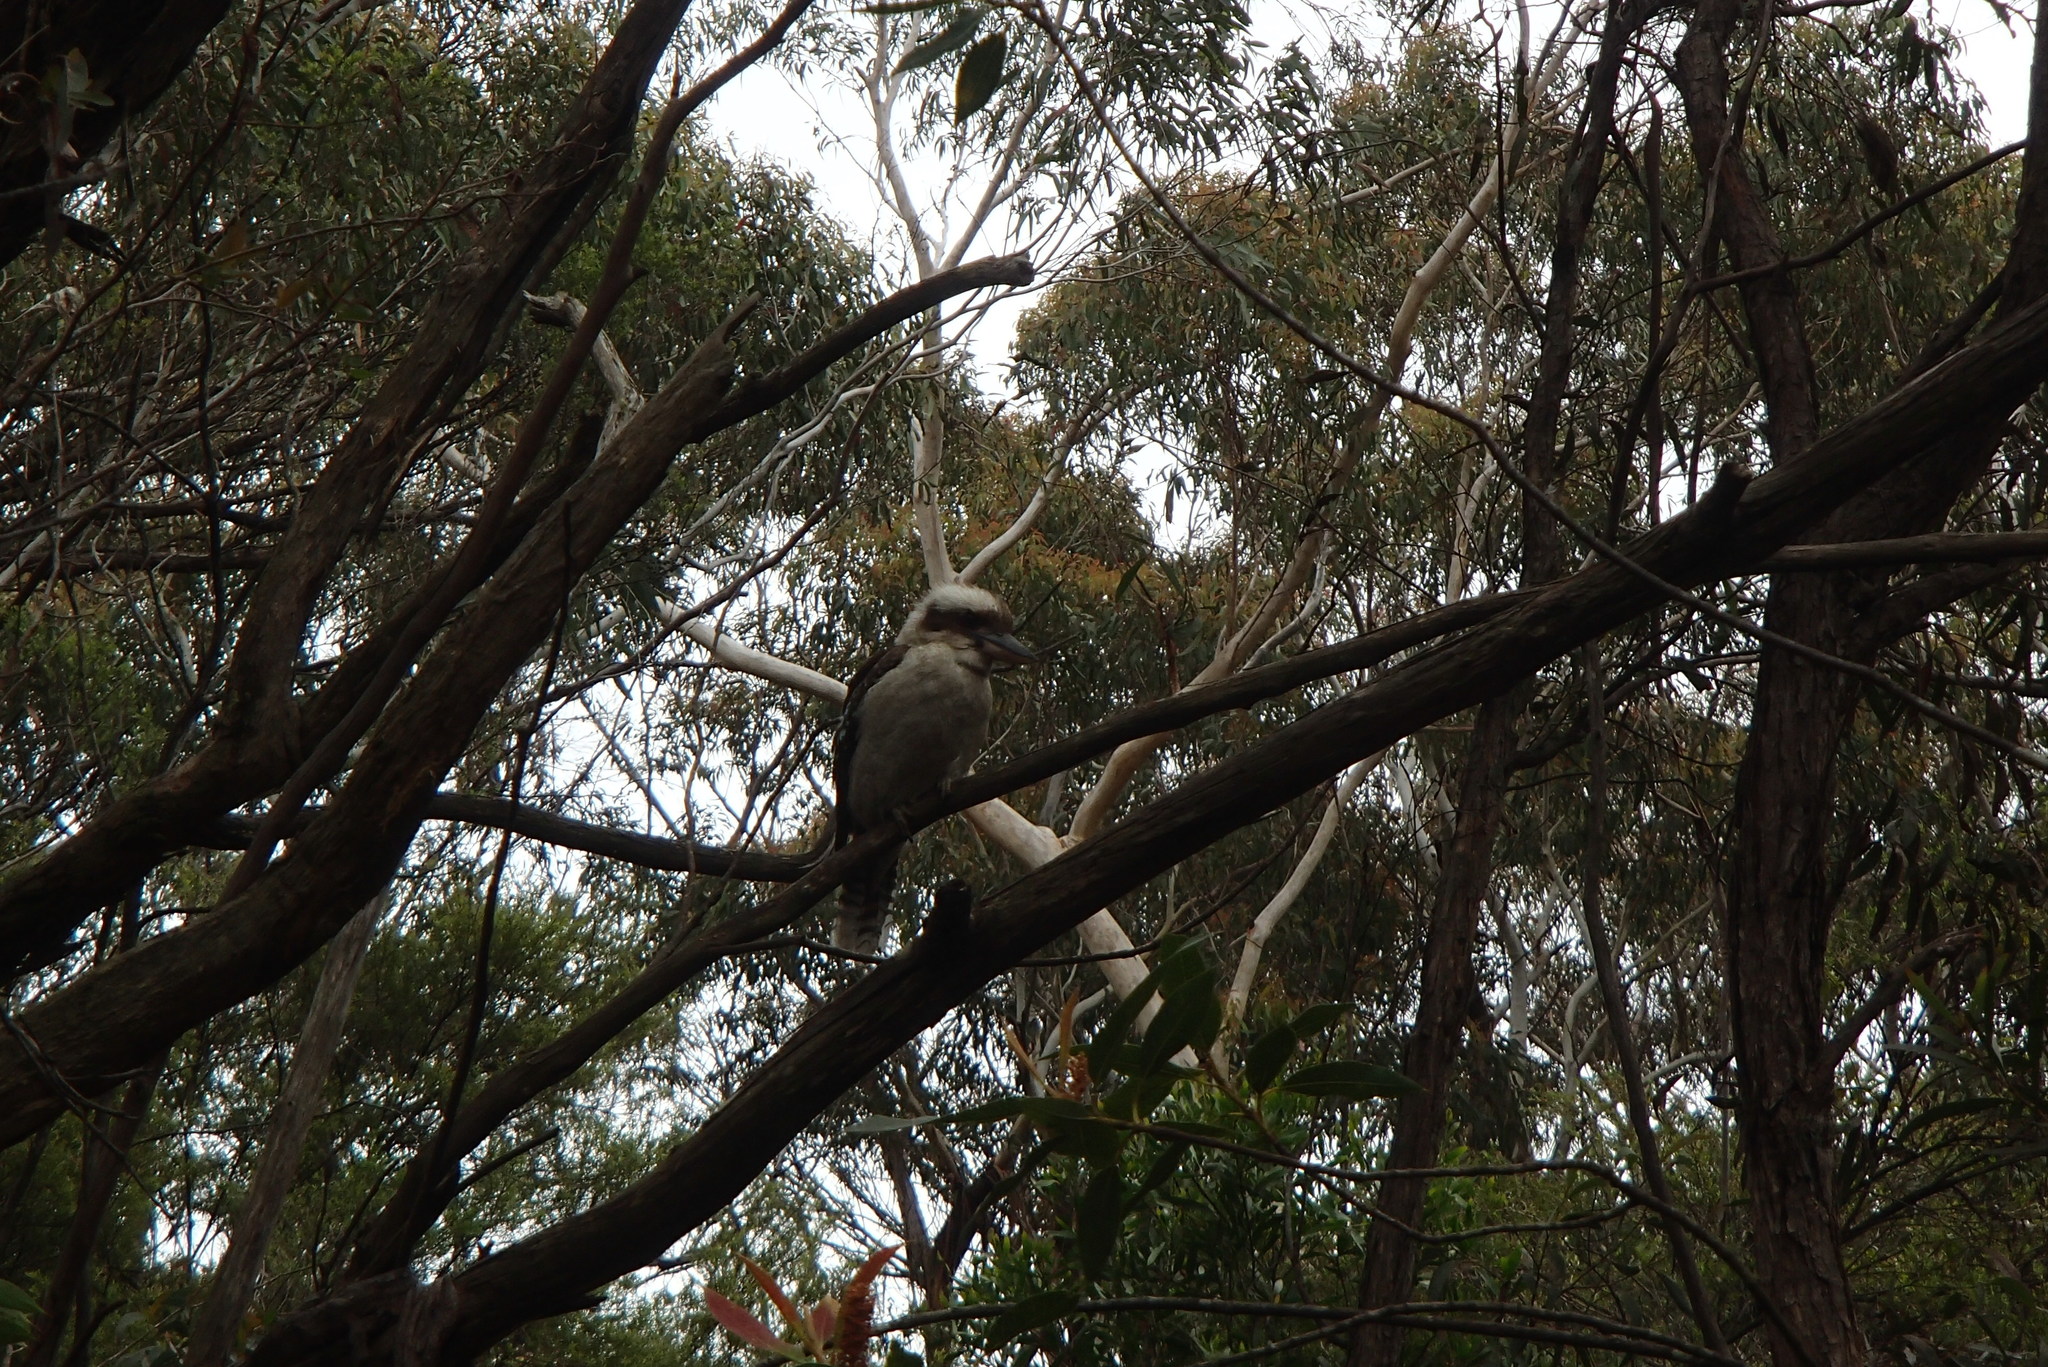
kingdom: Animalia
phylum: Chordata
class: Aves
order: Coraciiformes
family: Alcedinidae
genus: Dacelo
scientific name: Dacelo novaeguineae
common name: Laughing kookaburra
